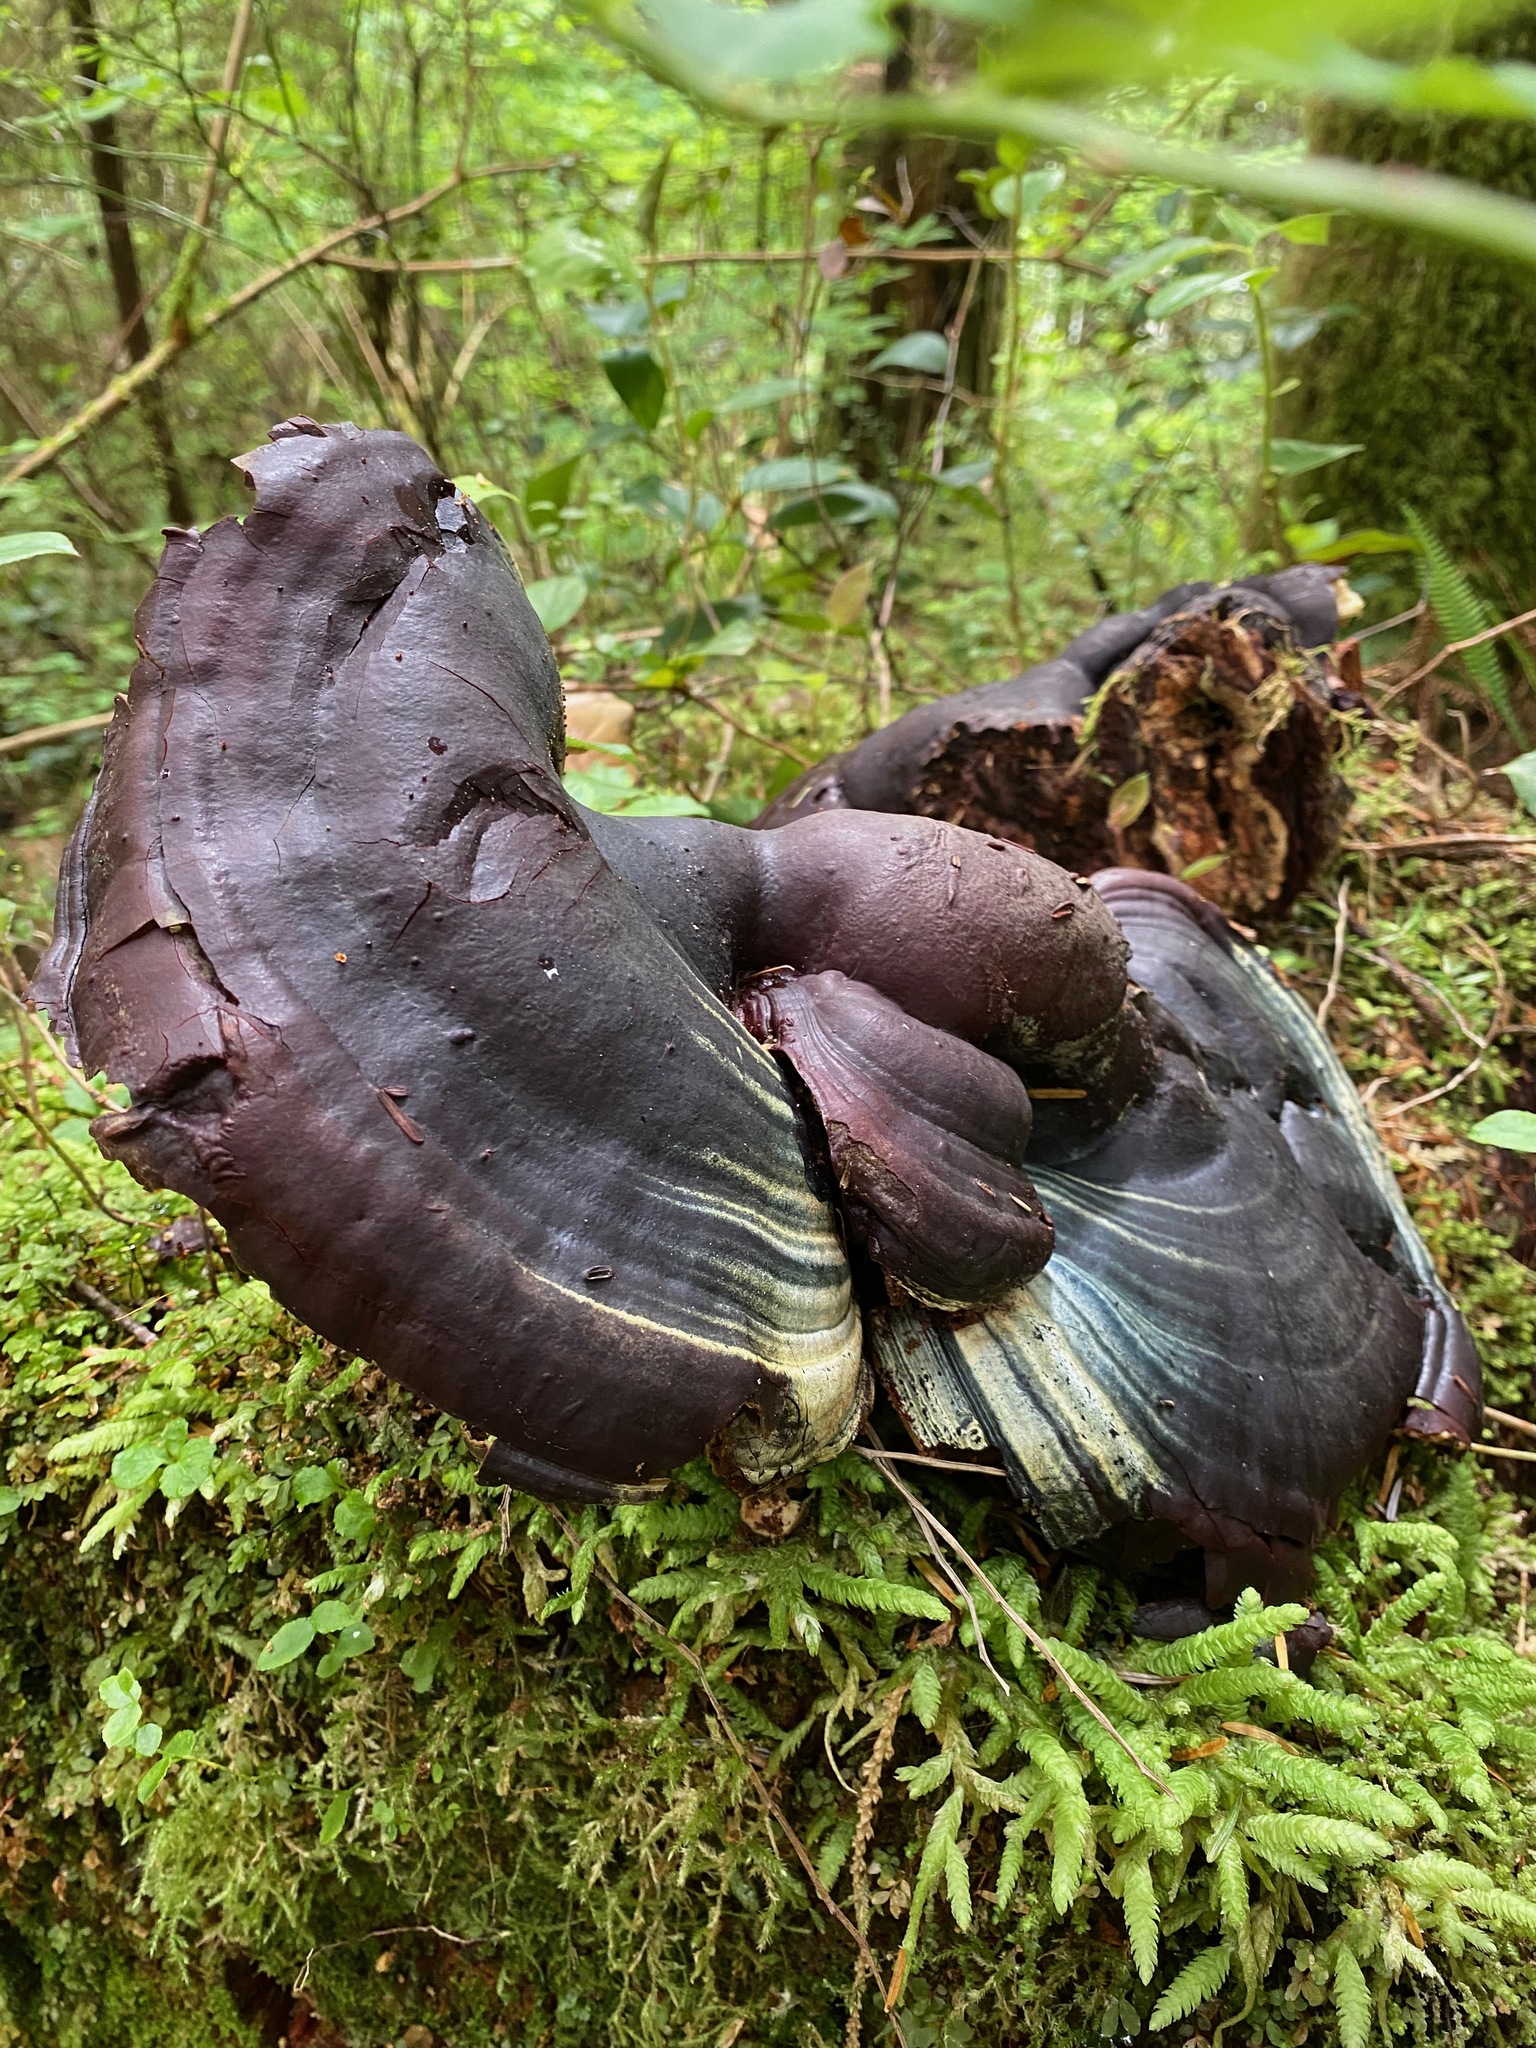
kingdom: Fungi
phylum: Basidiomycota
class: Agaricomycetes
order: Polyporales
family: Polyporaceae
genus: Ganoderma
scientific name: Ganoderma oregonense
